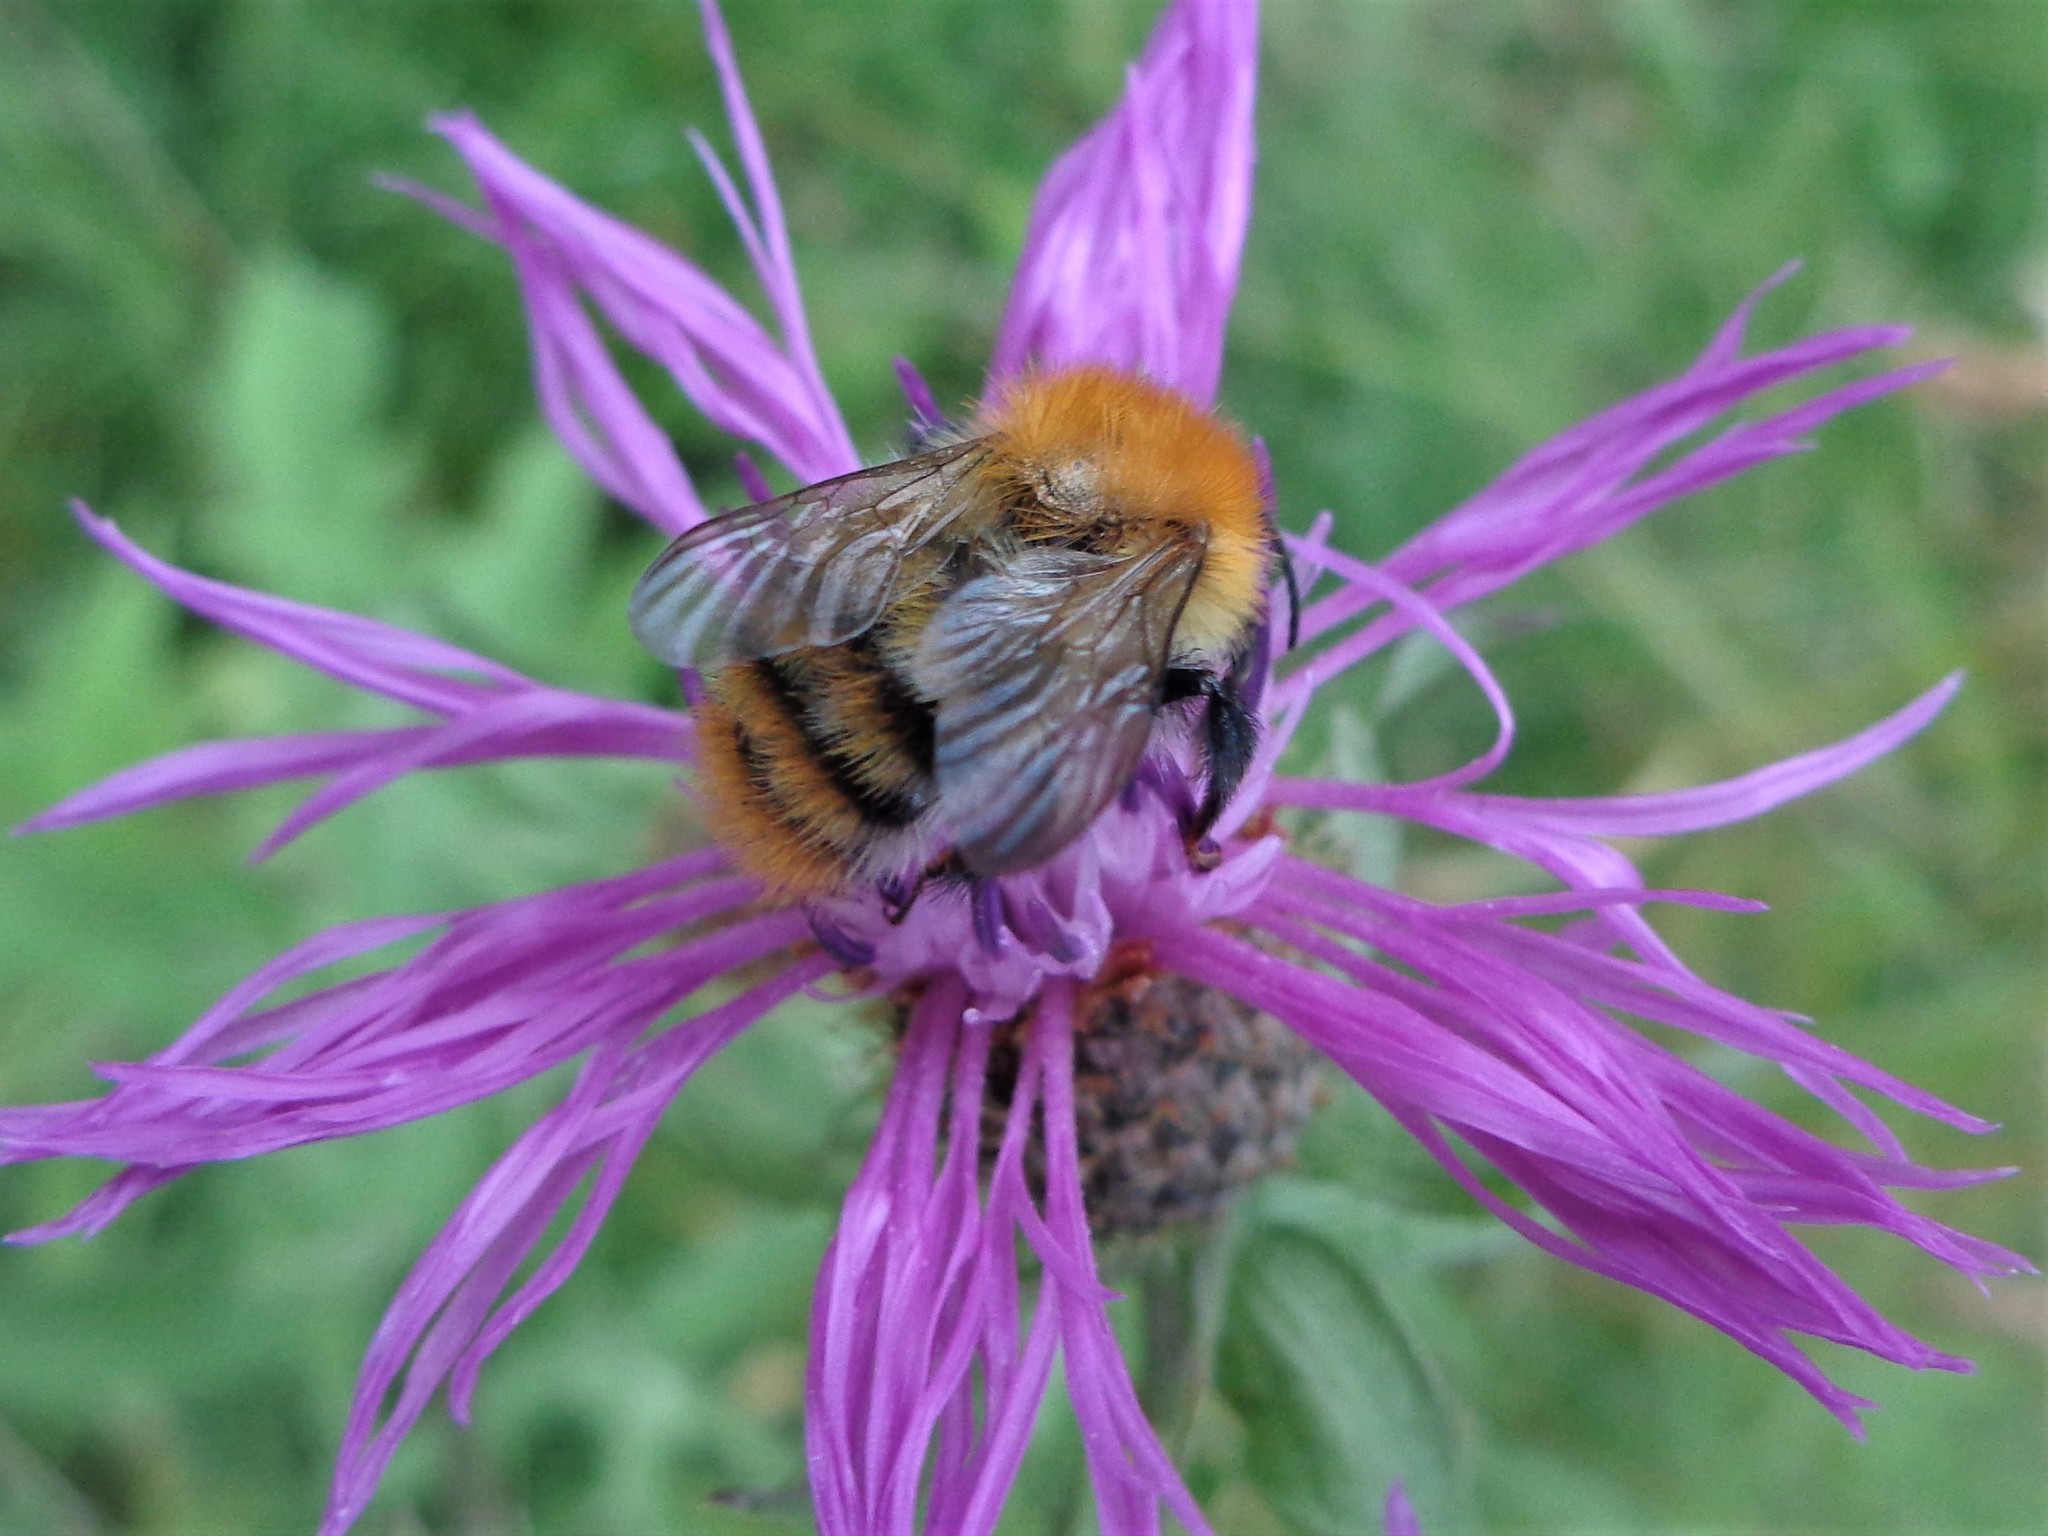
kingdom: Animalia
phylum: Arthropoda
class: Insecta
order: Hymenoptera
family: Apidae
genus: Bombus
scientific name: Bombus pascuorum
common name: Common carder bee
